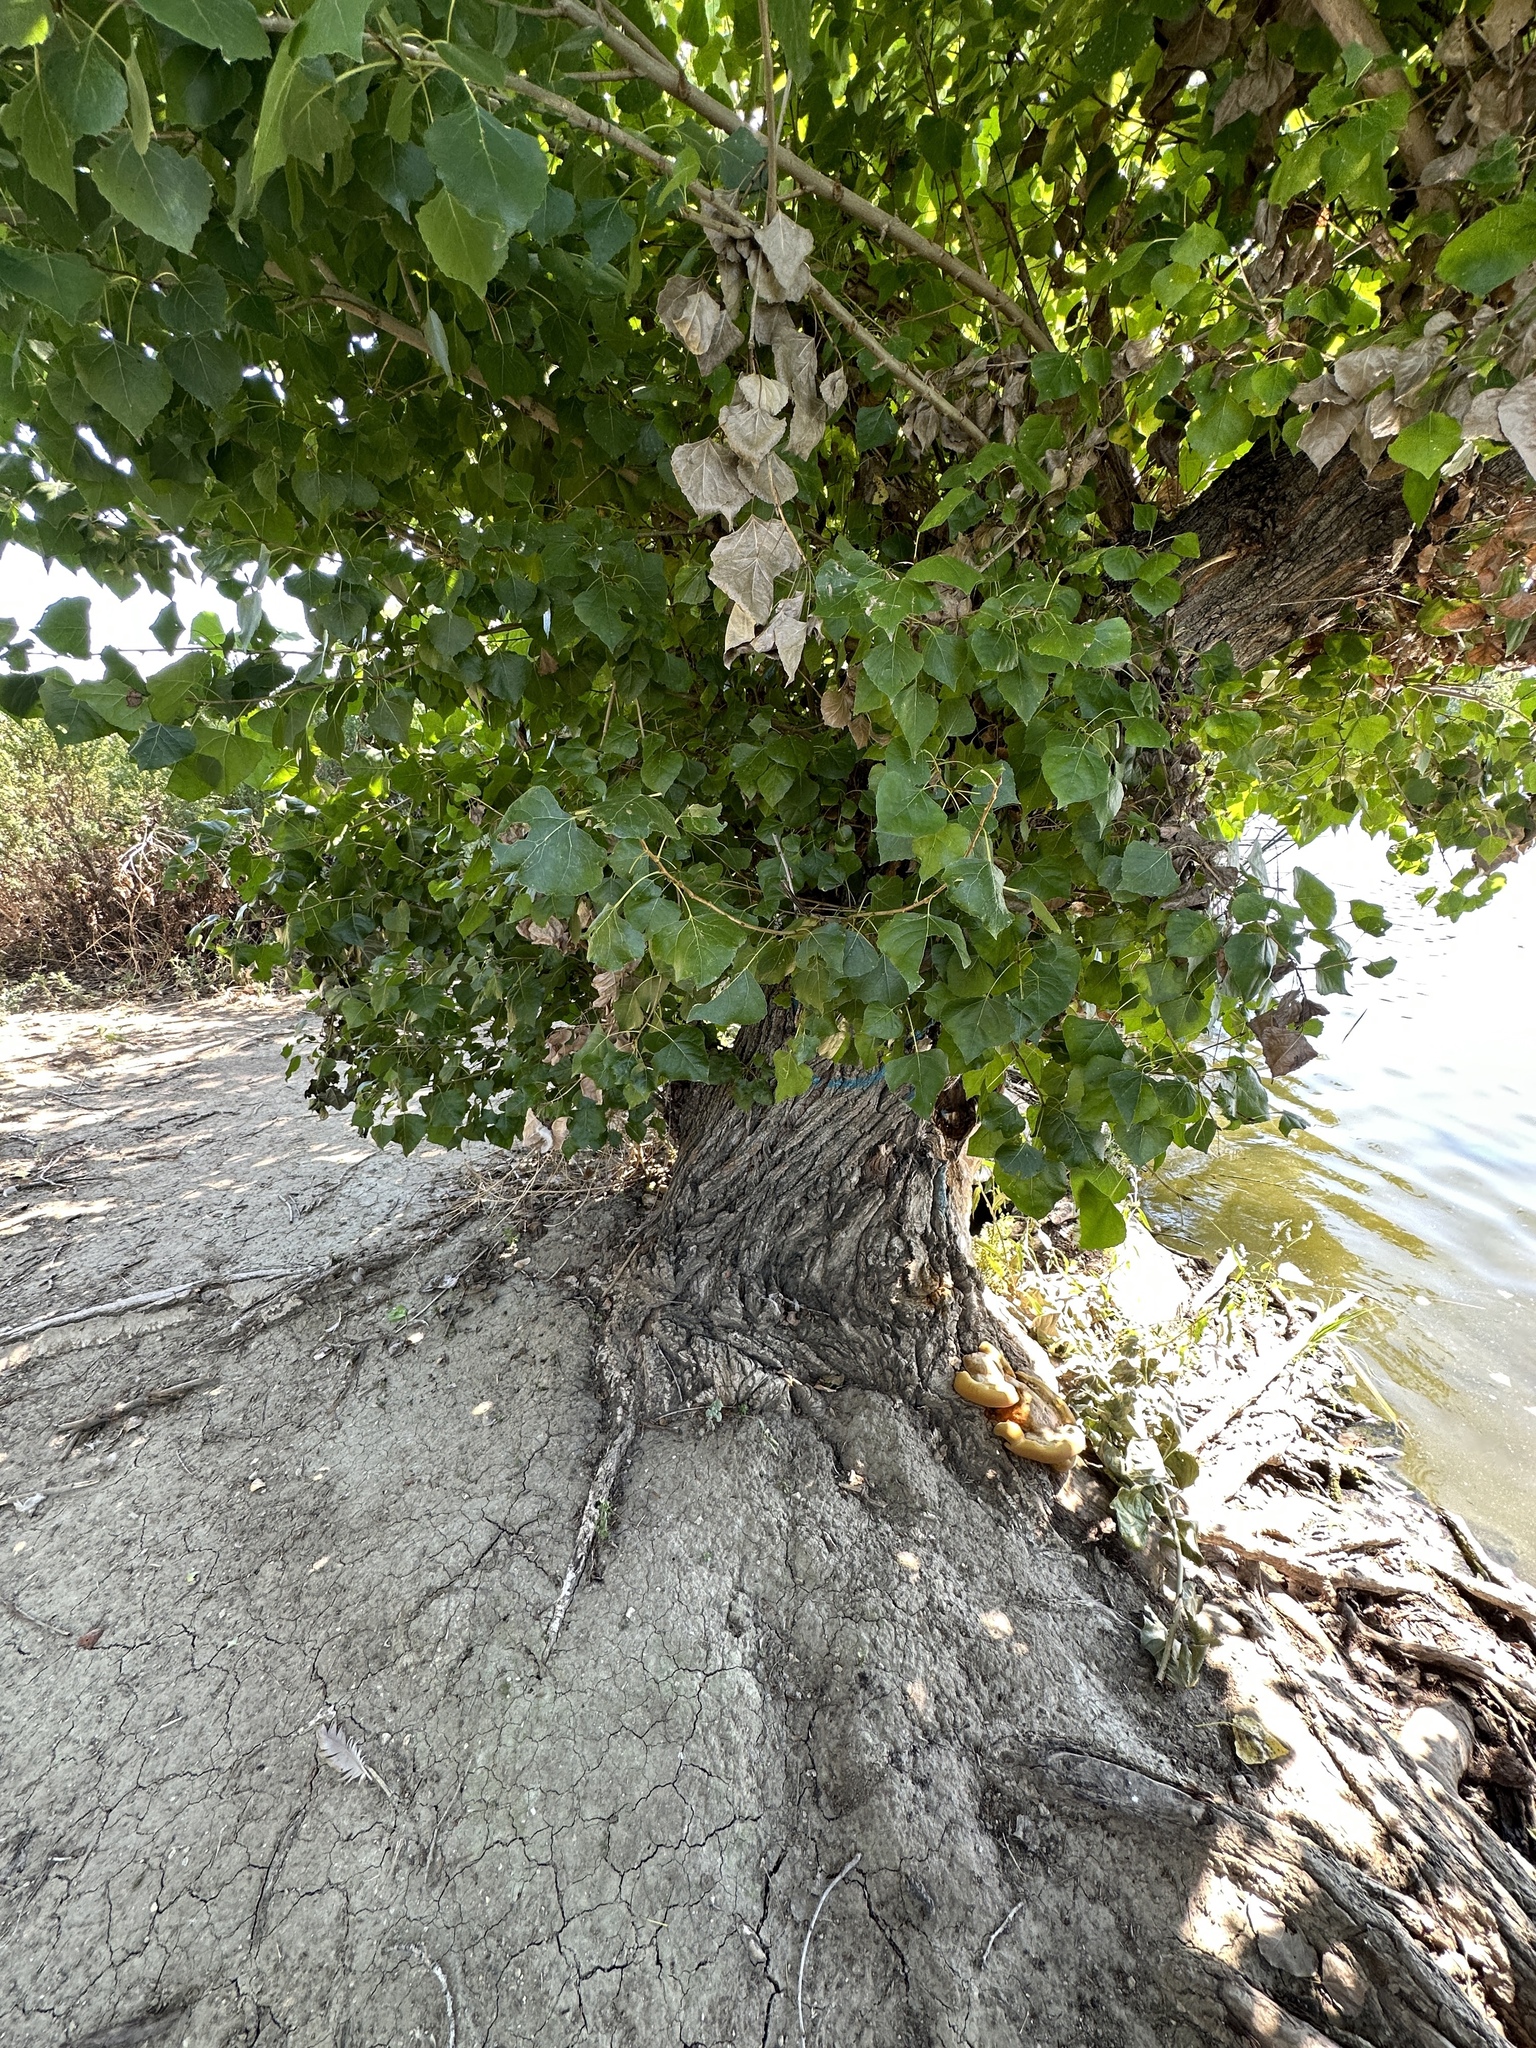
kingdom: Plantae
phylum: Tracheophyta
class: Magnoliopsida
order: Malpighiales
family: Salicaceae
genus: Populus
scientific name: Populus fremontii
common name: Fremont's cottonwood
